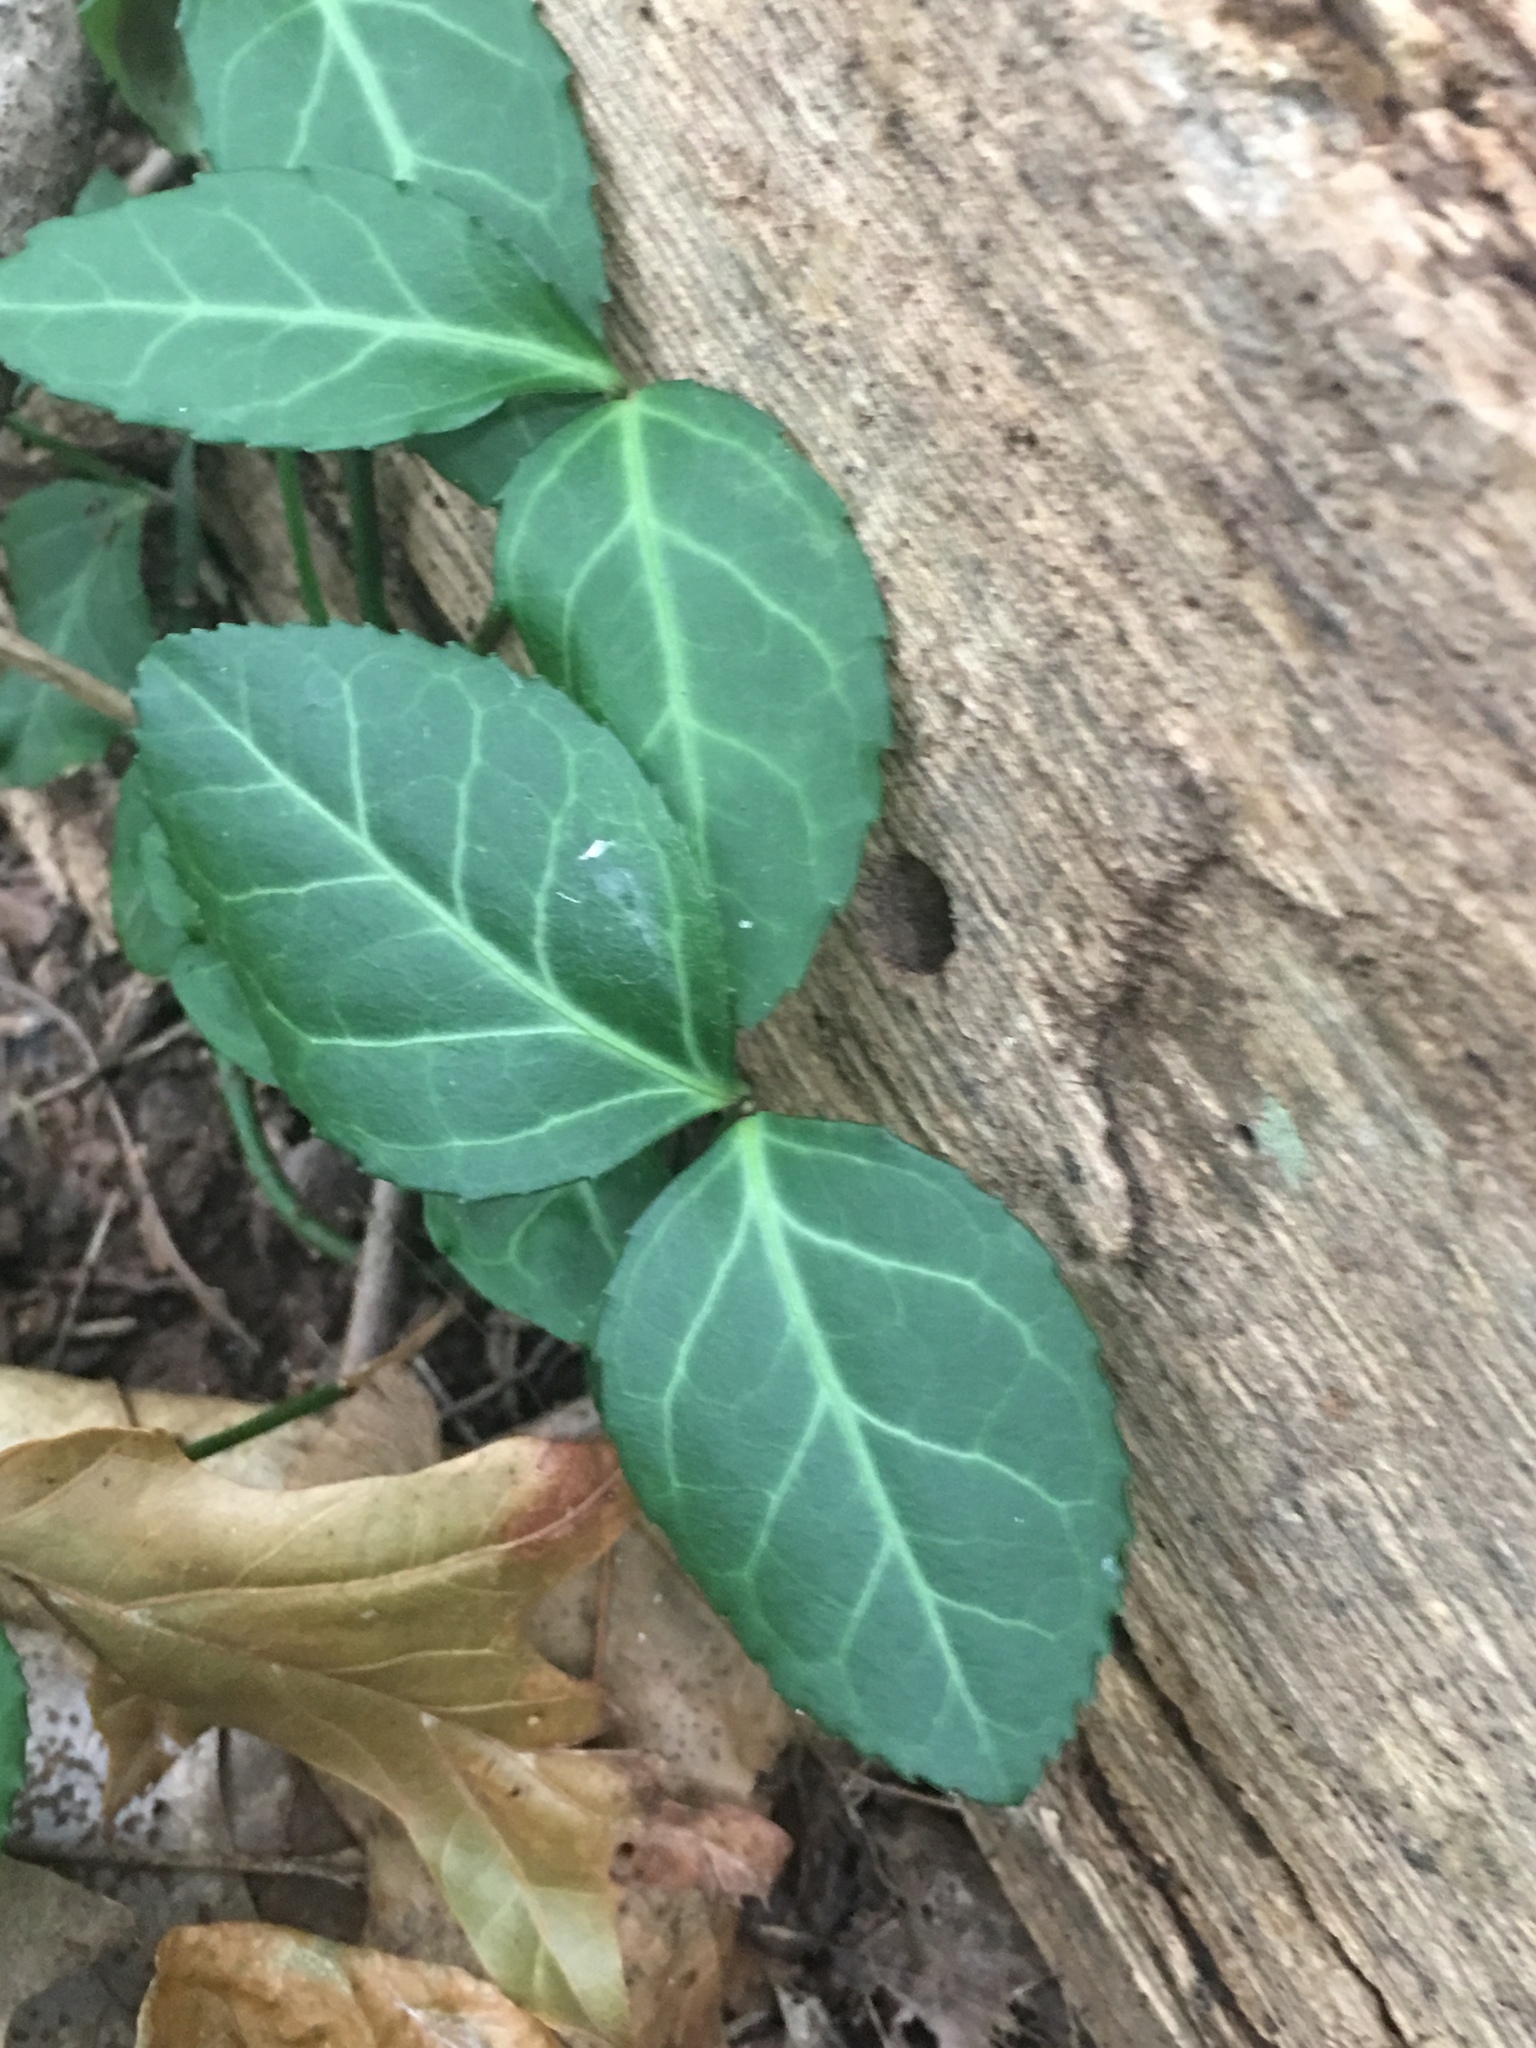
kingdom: Plantae
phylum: Tracheophyta
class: Magnoliopsida
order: Celastrales
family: Celastraceae
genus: Euonymus
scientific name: Euonymus fortunei
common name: Climbing euonymus
